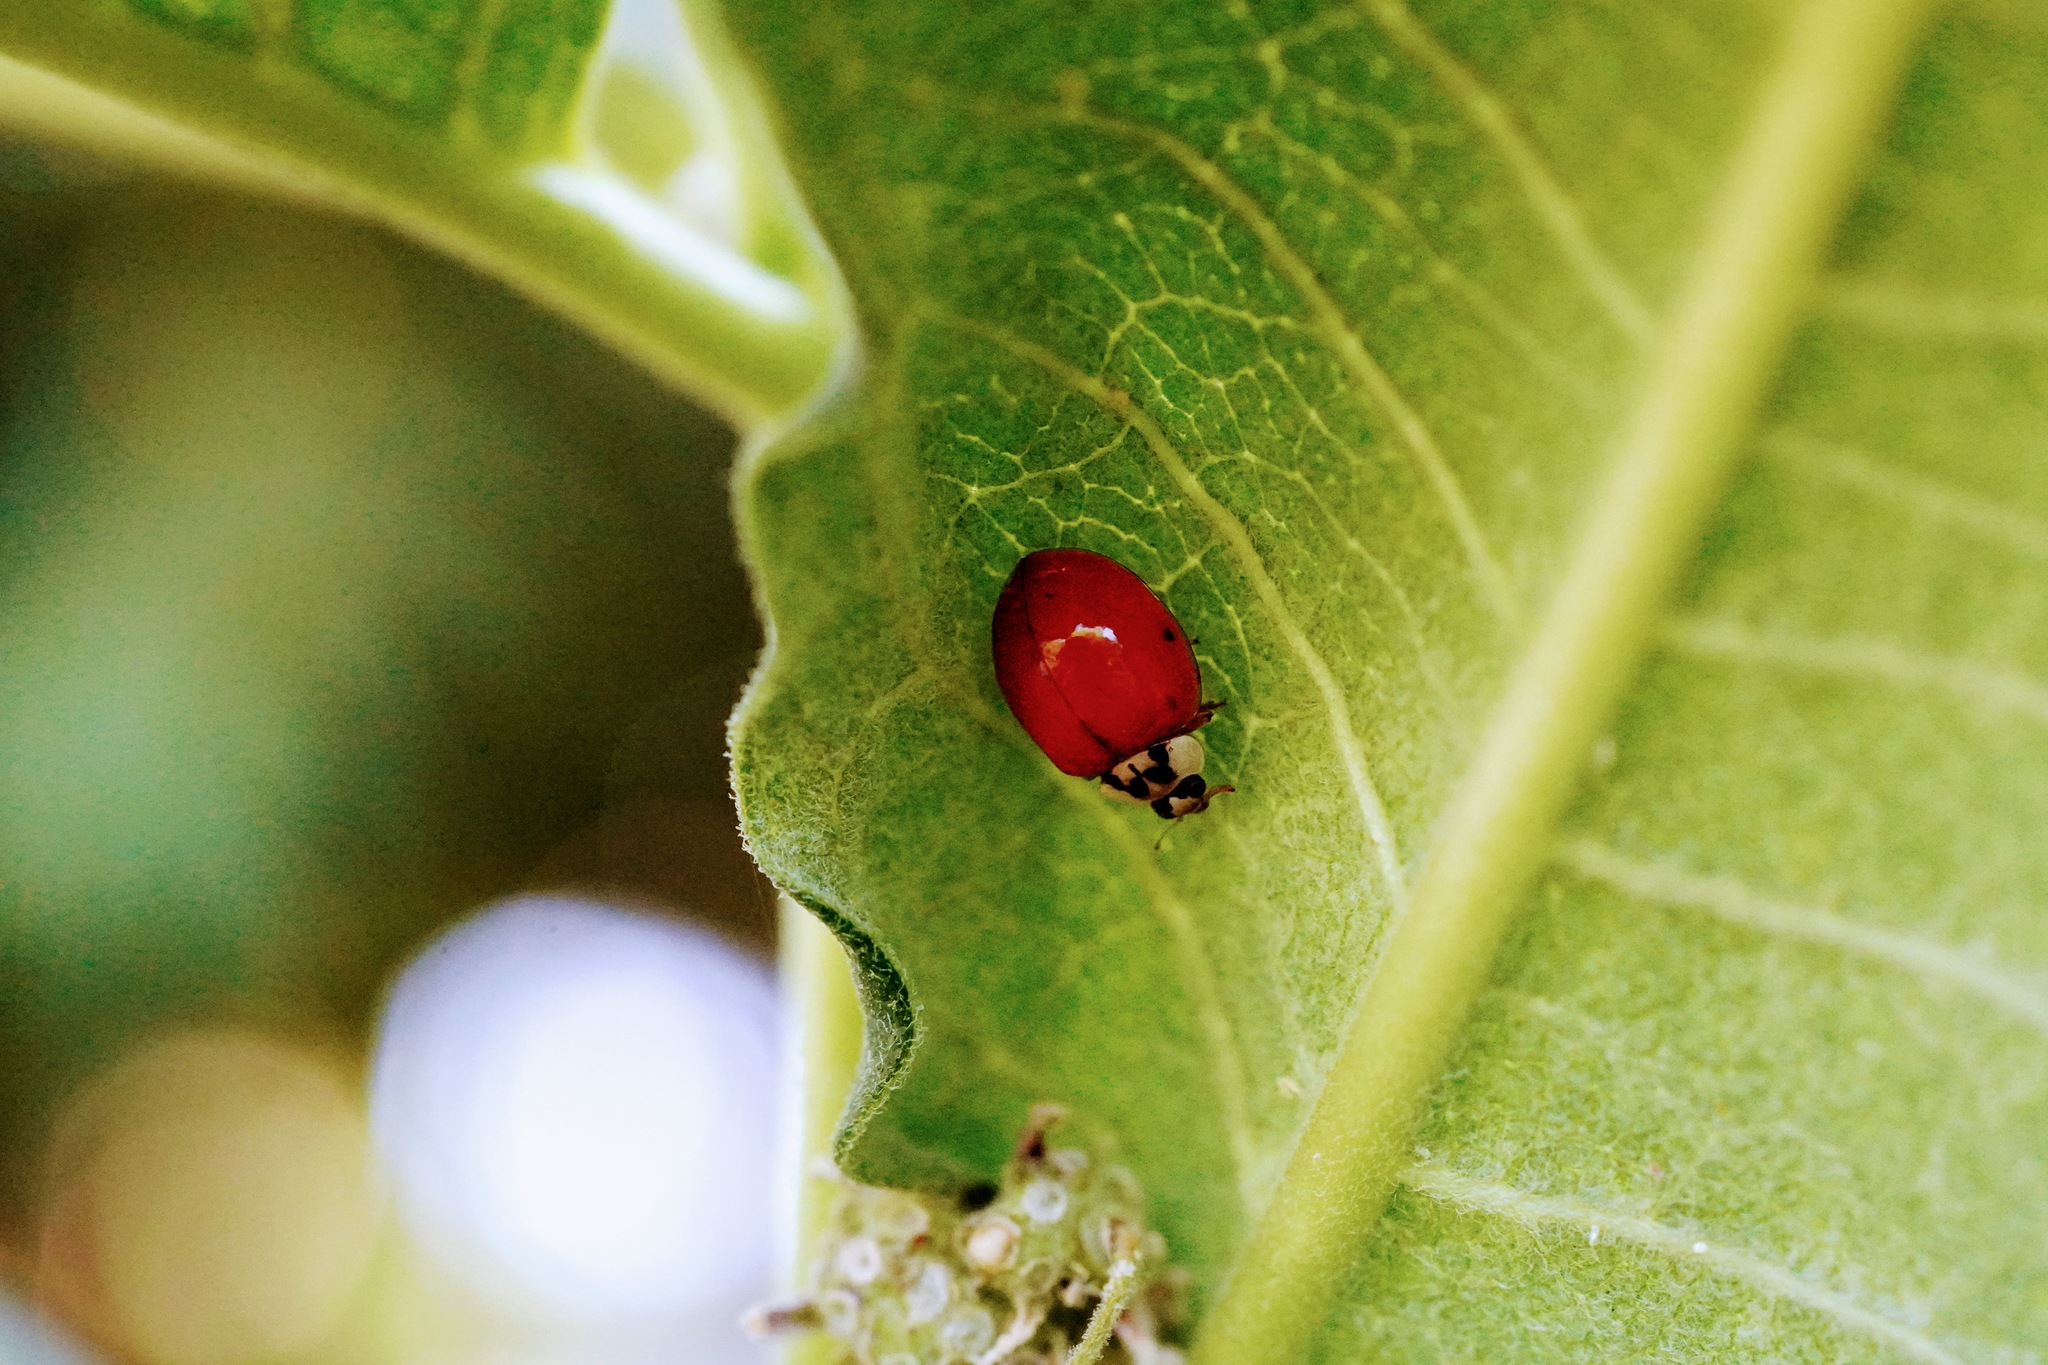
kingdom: Animalia
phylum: Arthropoda
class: Insecta
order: Coleoptera
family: Coccinellidae
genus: Harmonia
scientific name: Harmonia axyridis
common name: Harlequin ladybird
